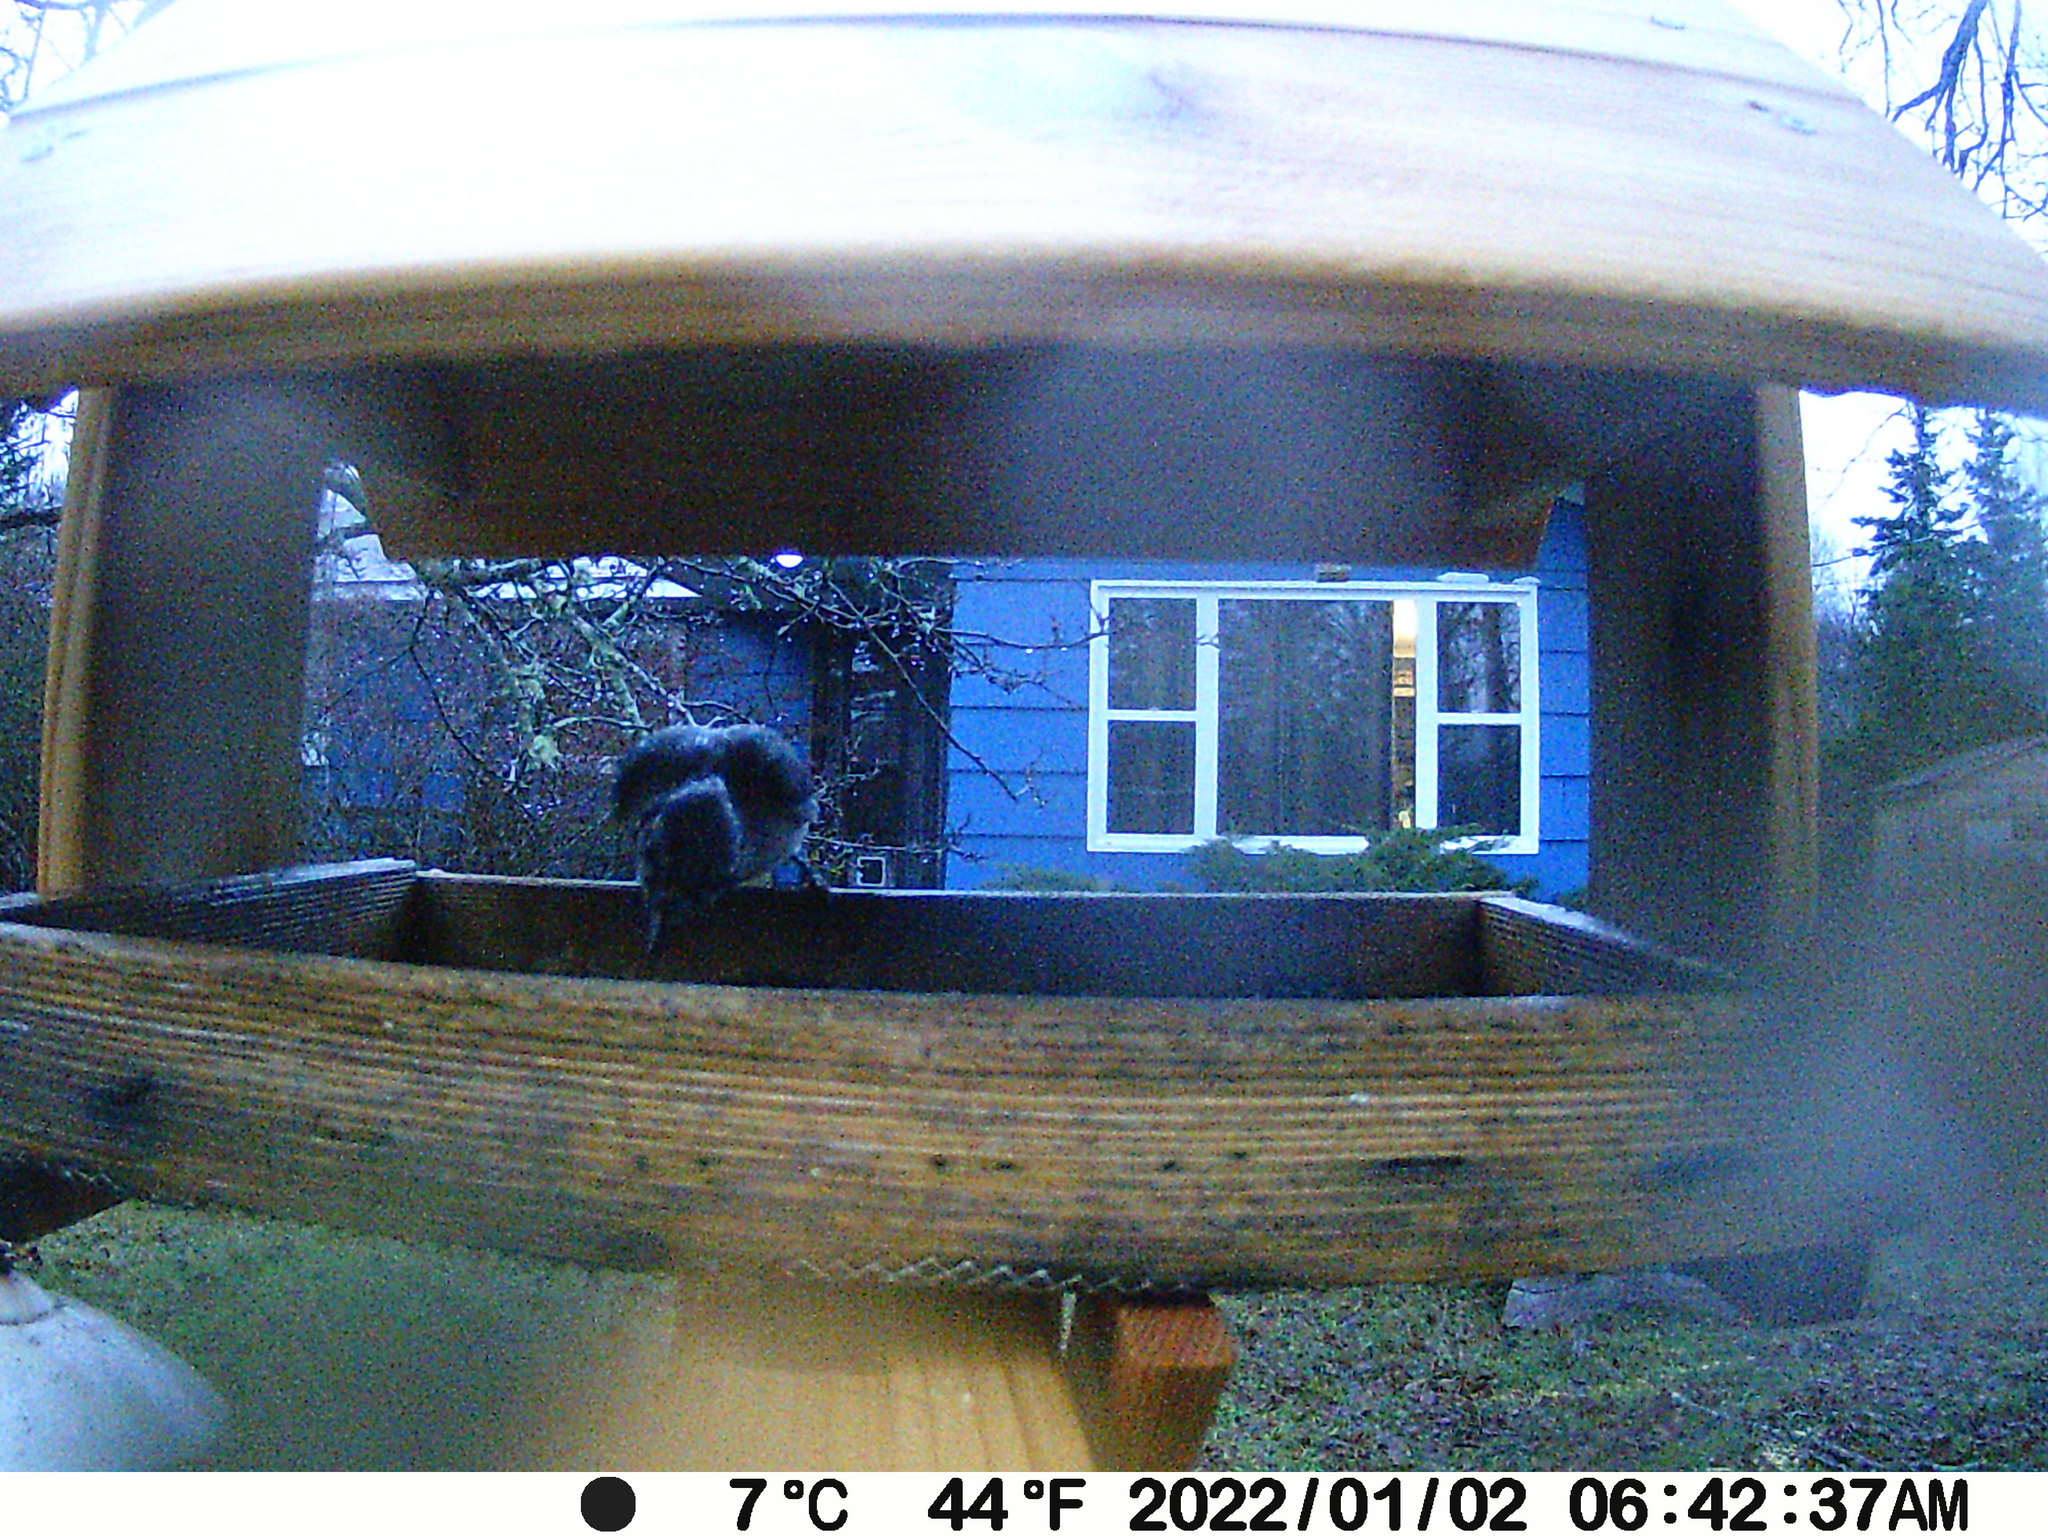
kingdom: Animalia
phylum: Chordata
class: Aves
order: Passeriformes
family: Corvidae
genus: Cyanocitta
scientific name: Cyanocitta cristata
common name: Blue jay
